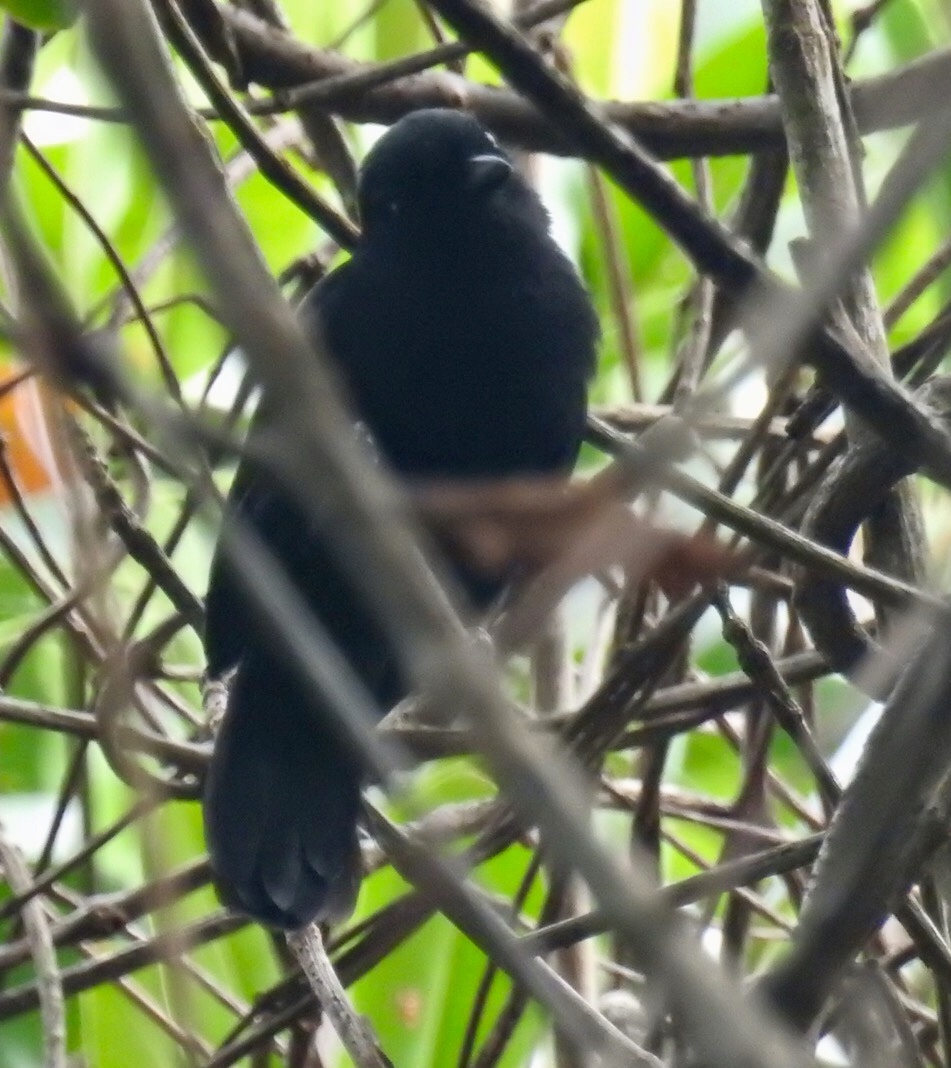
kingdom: Animalia
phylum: Chordata
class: Aves
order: Passeriformes
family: Thamnophilidae
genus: Thamnophilus
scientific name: Thamnophilus nigriceps
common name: Black antshrike
